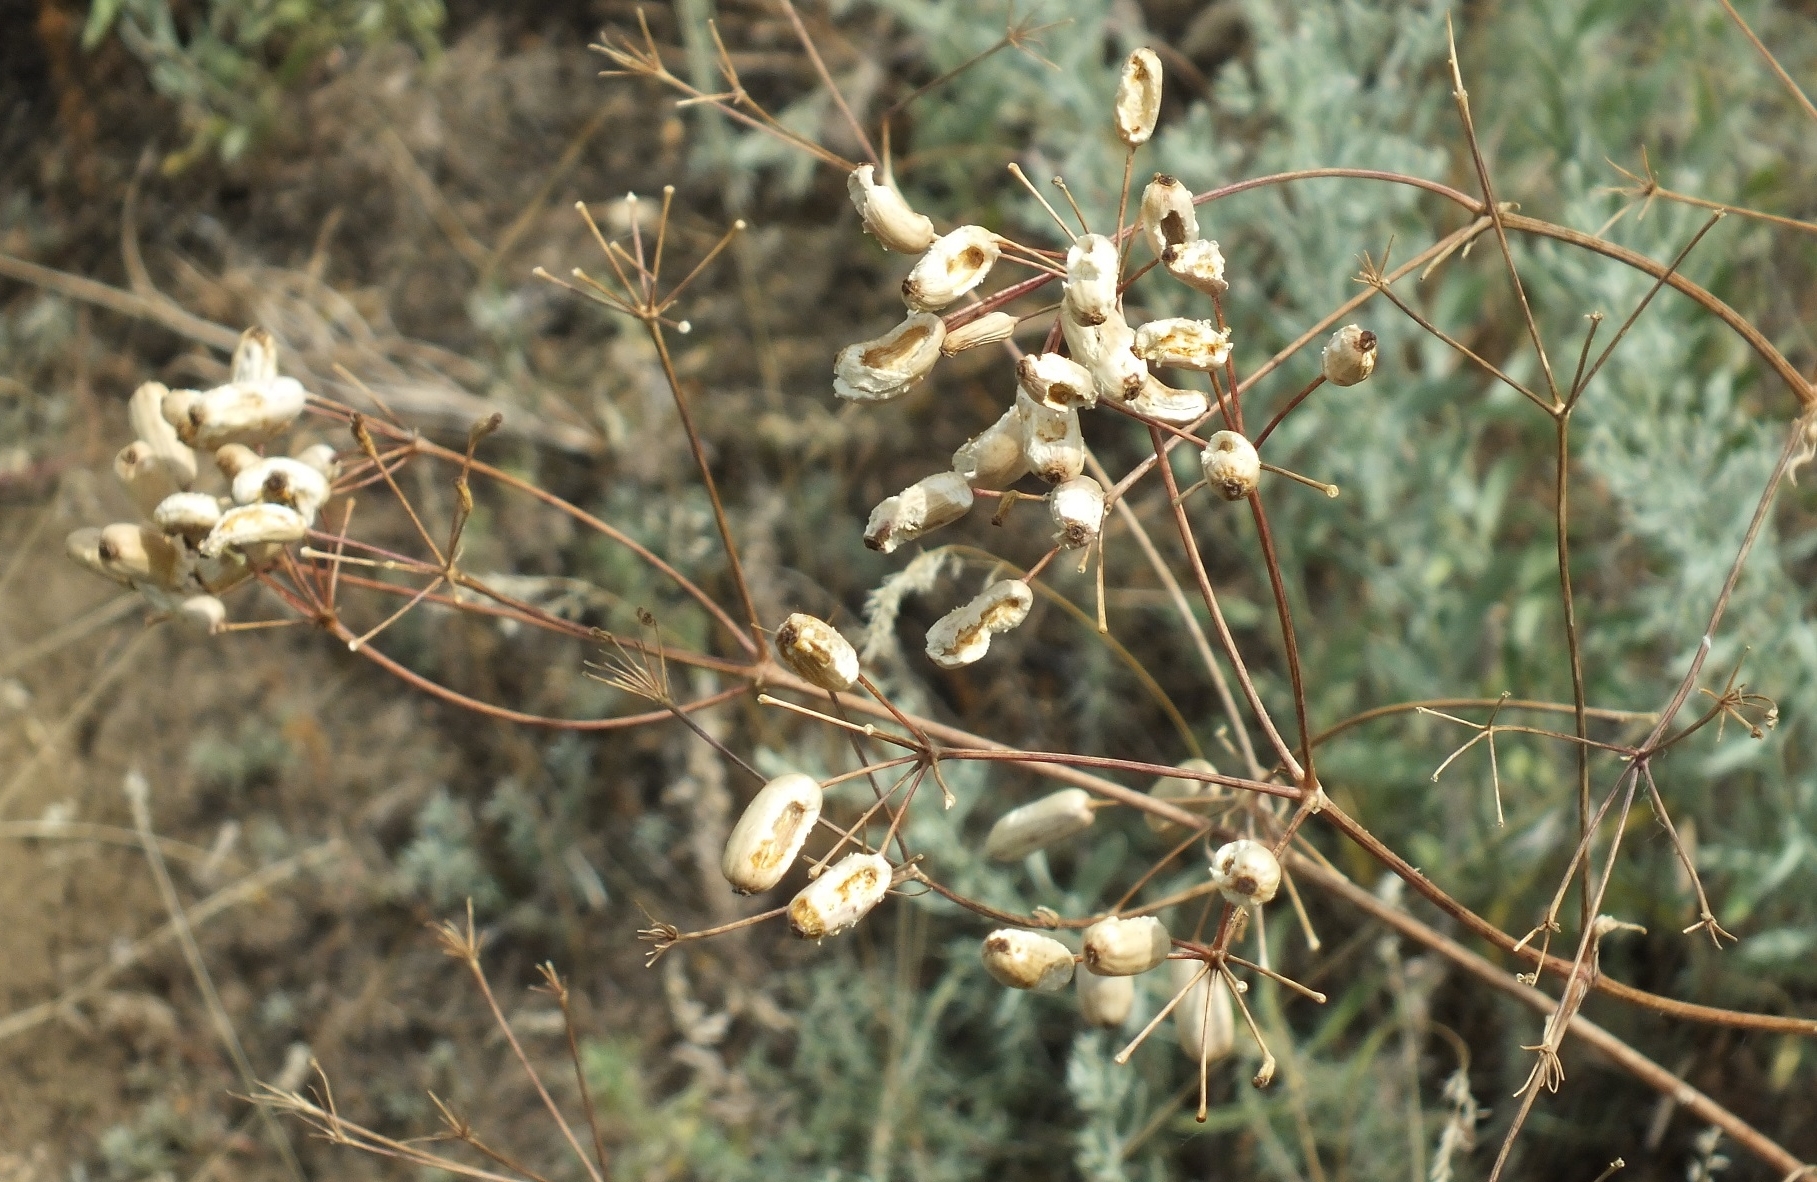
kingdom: Plantae
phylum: Tracheophyta
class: Magnoliopsida
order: Apiales
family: Apiaceae
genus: Prangos
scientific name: Prangos odontalgica
